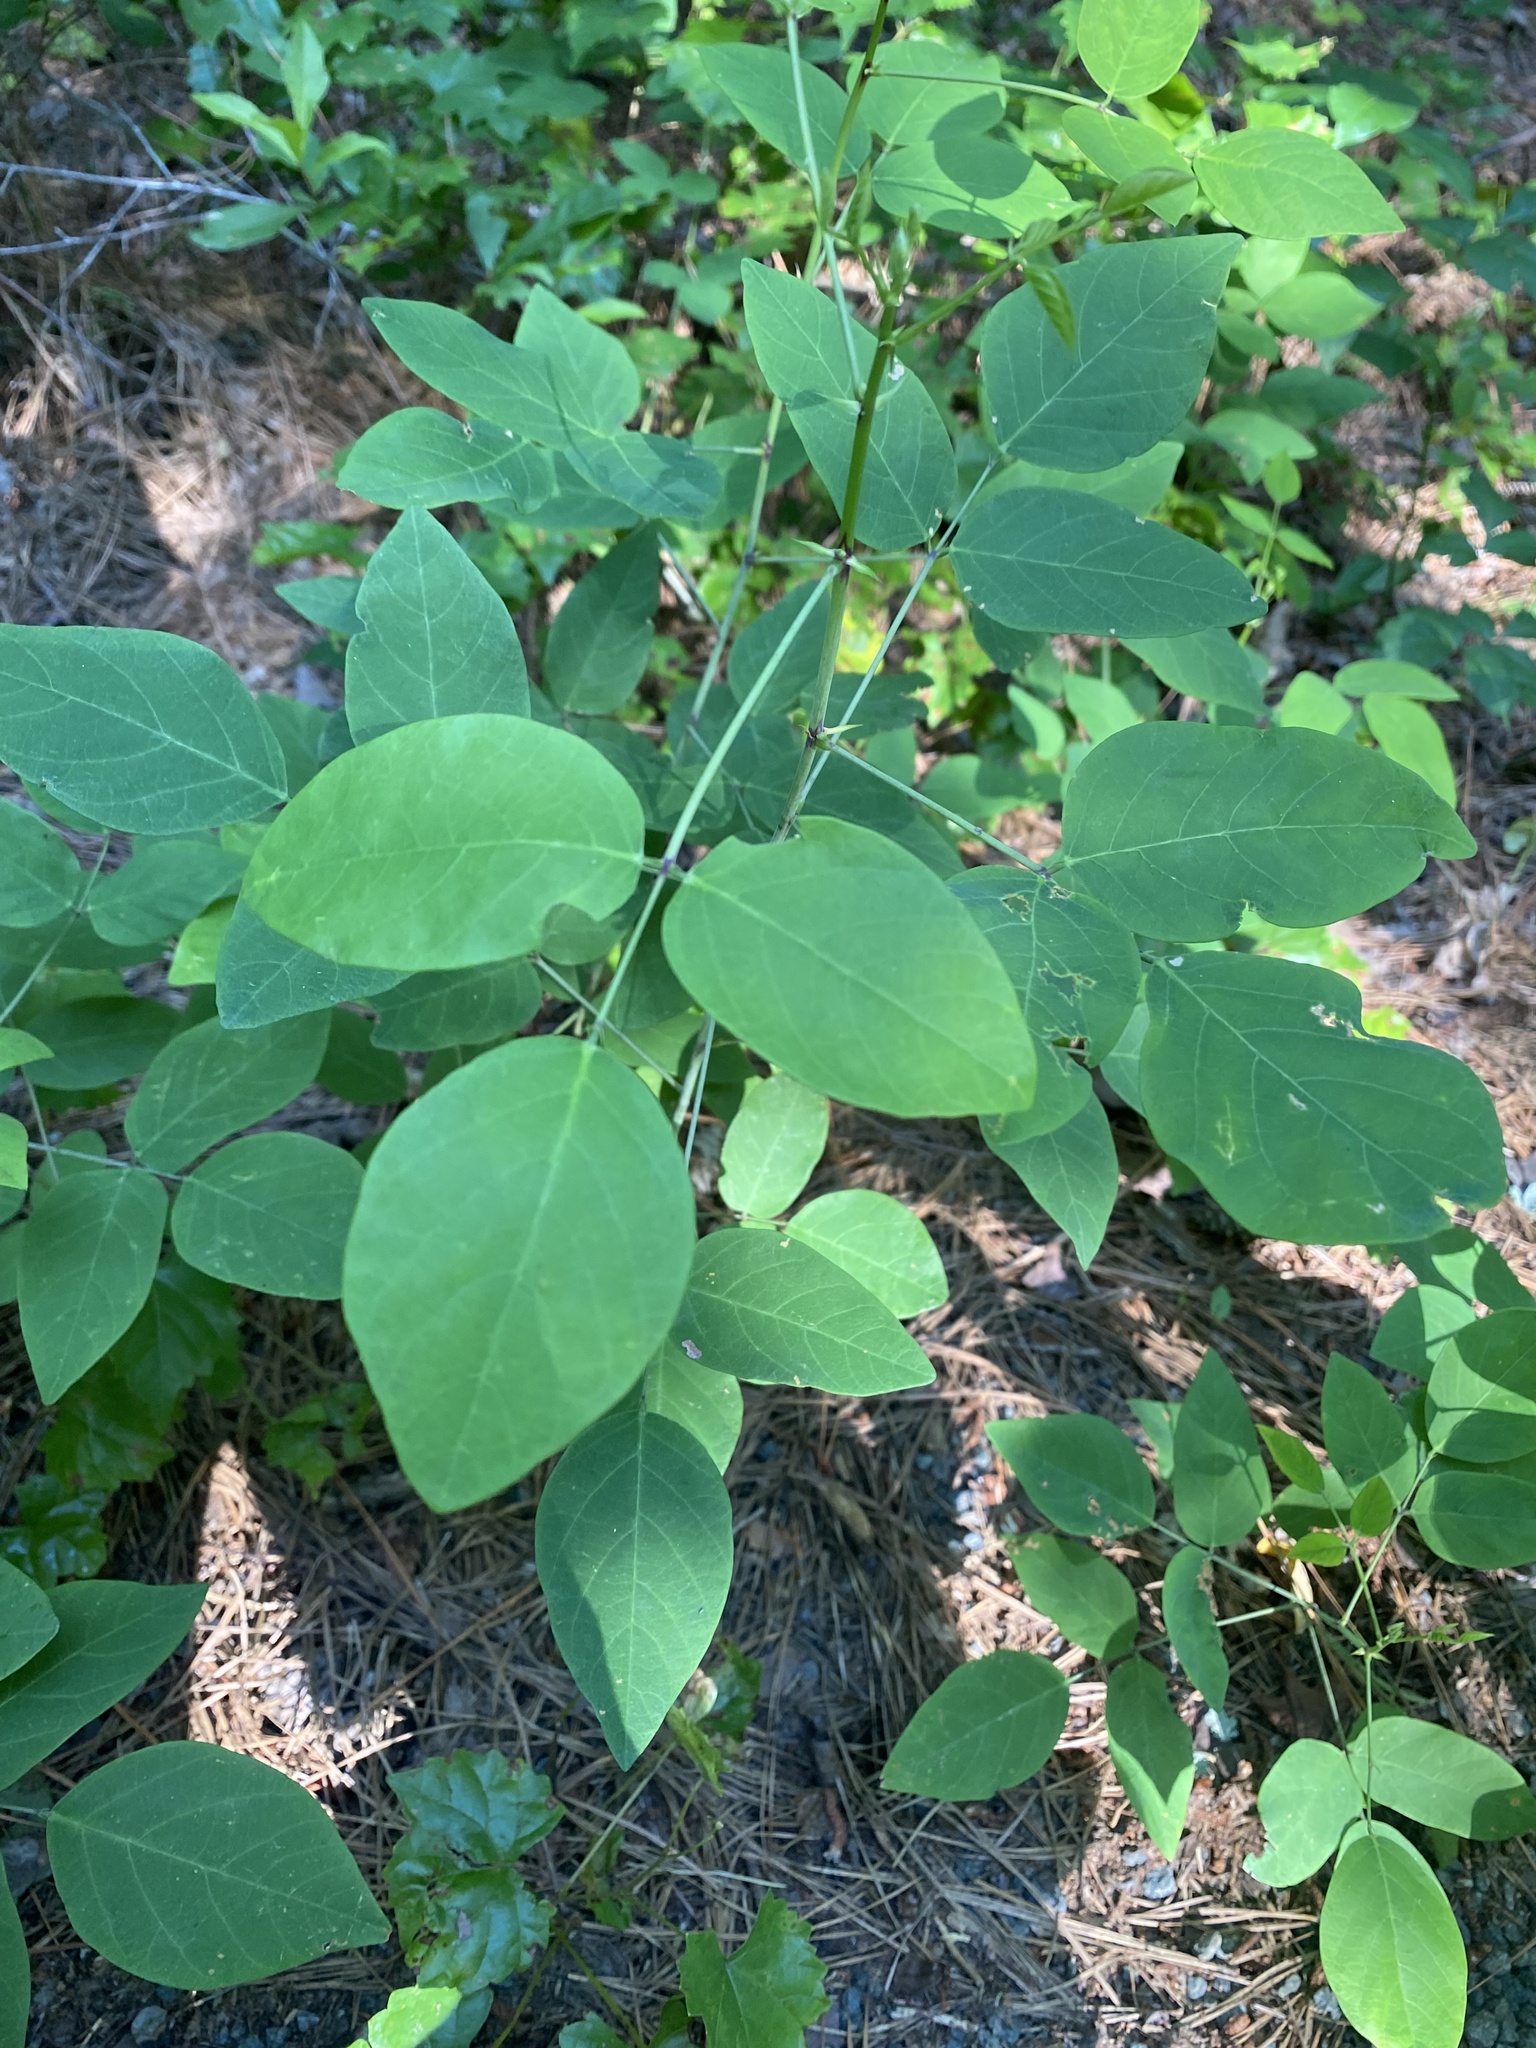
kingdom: Plantae
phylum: Tracheophyta
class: Magnoliopsida
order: Fabales
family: Fabaceae
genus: Desmodium
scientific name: Desmodium laevigatum
